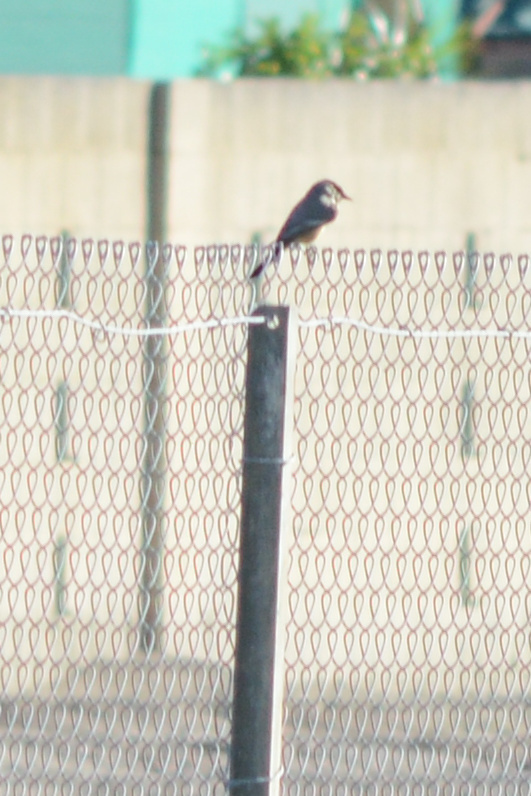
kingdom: Animalia
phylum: Chordata
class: Aves
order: Passeriformes
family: Tyrannidae
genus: Sayornis
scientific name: Sayornis saya
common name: Say's phoebe
